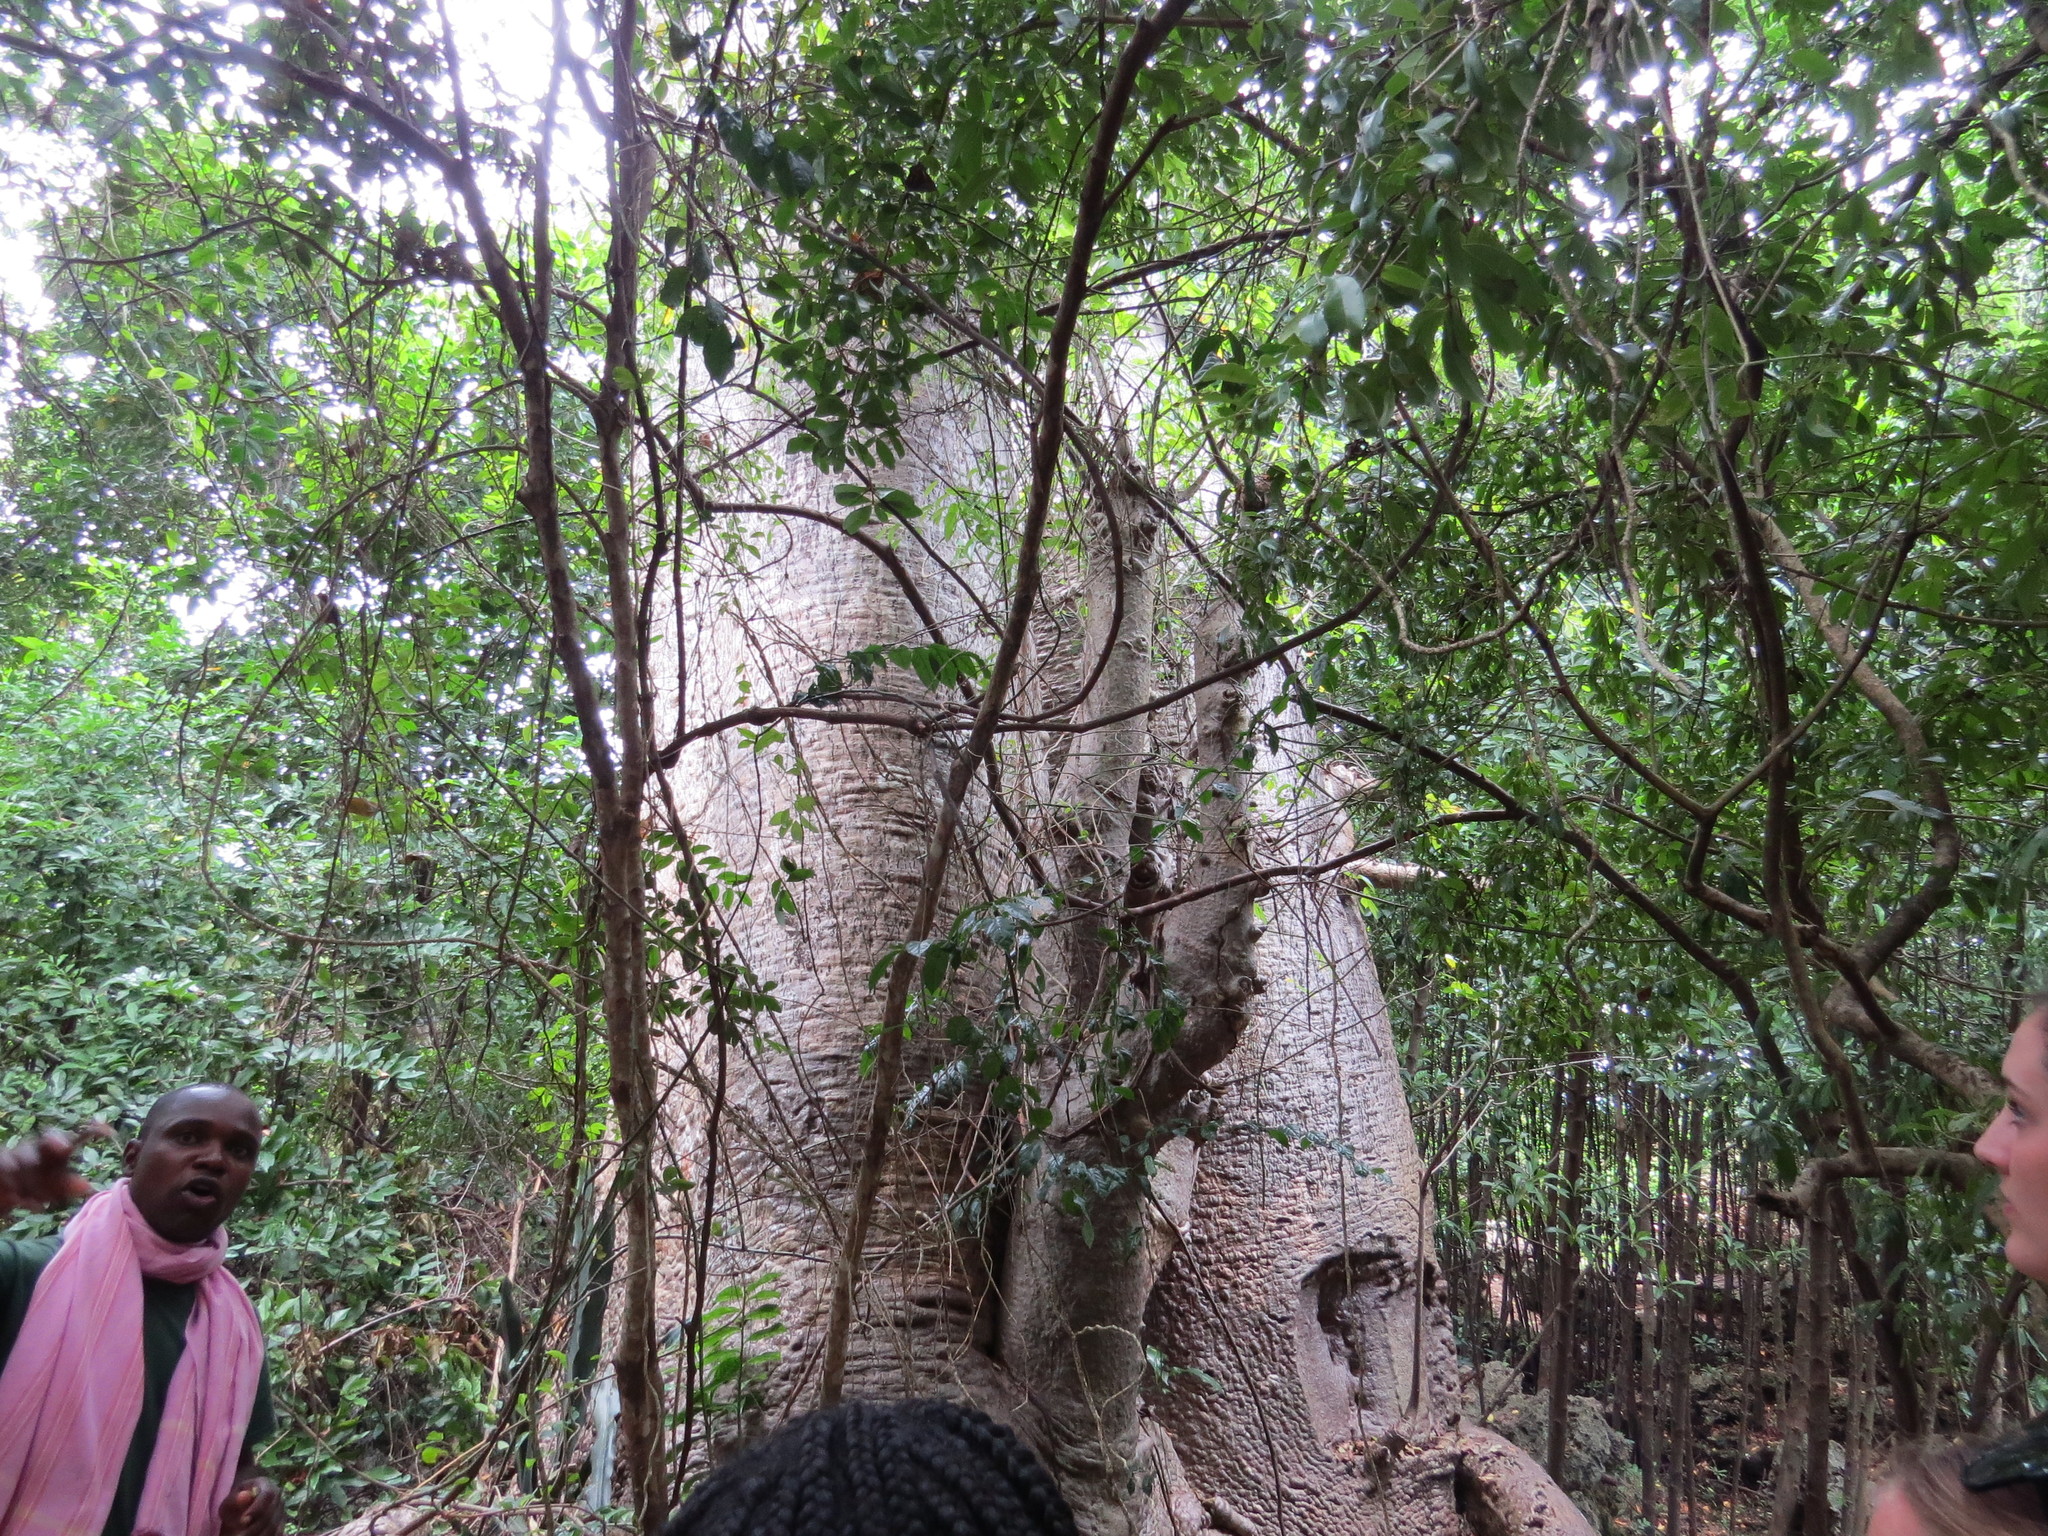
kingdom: Plantae
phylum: Tracheophyta
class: Magnoliopsida
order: Malvales
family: Malvaceae
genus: Adansonia
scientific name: Adansonia digitata
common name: Dead-rat-tree
